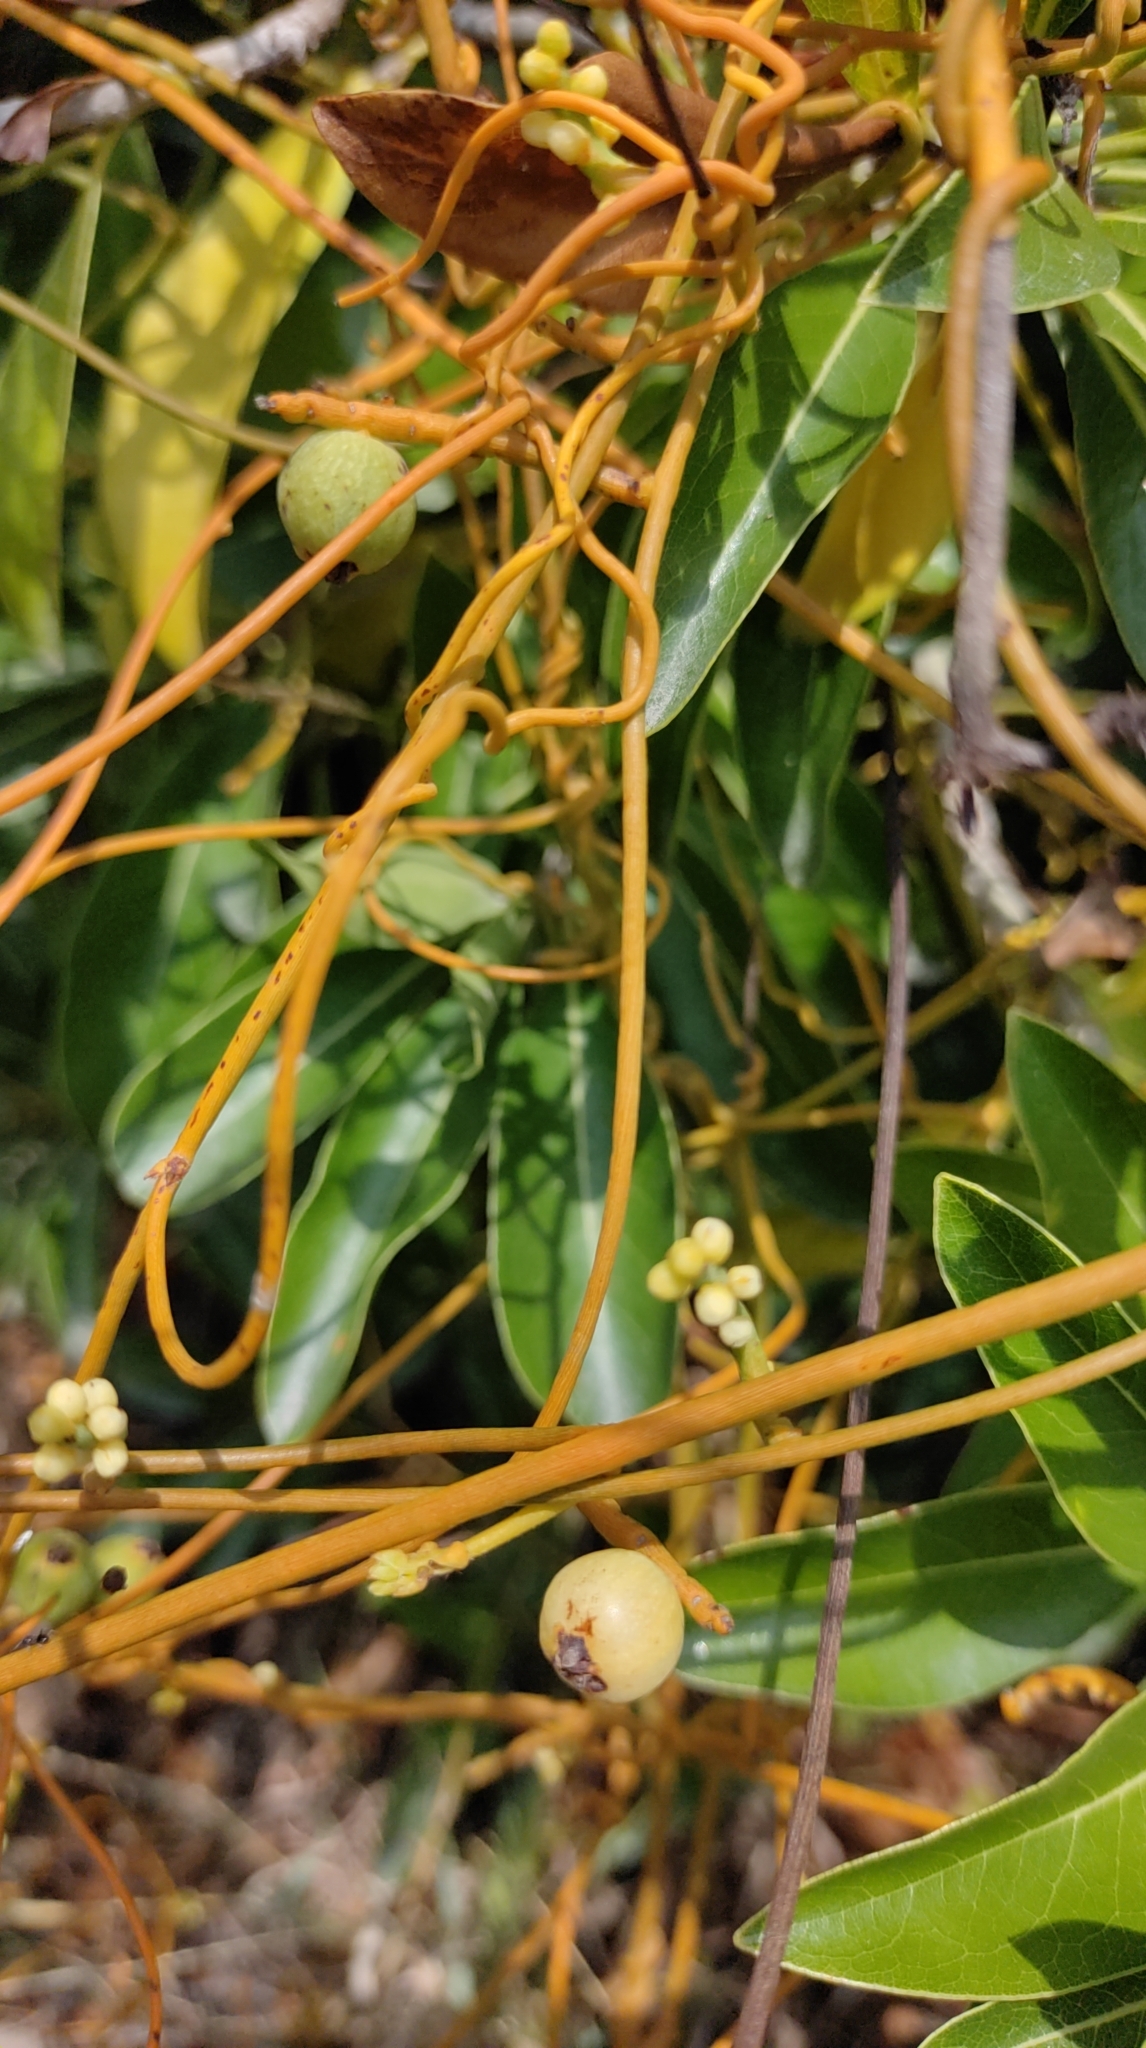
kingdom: Plantae
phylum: Tracheophyta
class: Magnoliopsida
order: Laurales
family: Lauraceae
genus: Cassytha
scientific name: Cassytha filiformis
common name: Dodder-laurel
